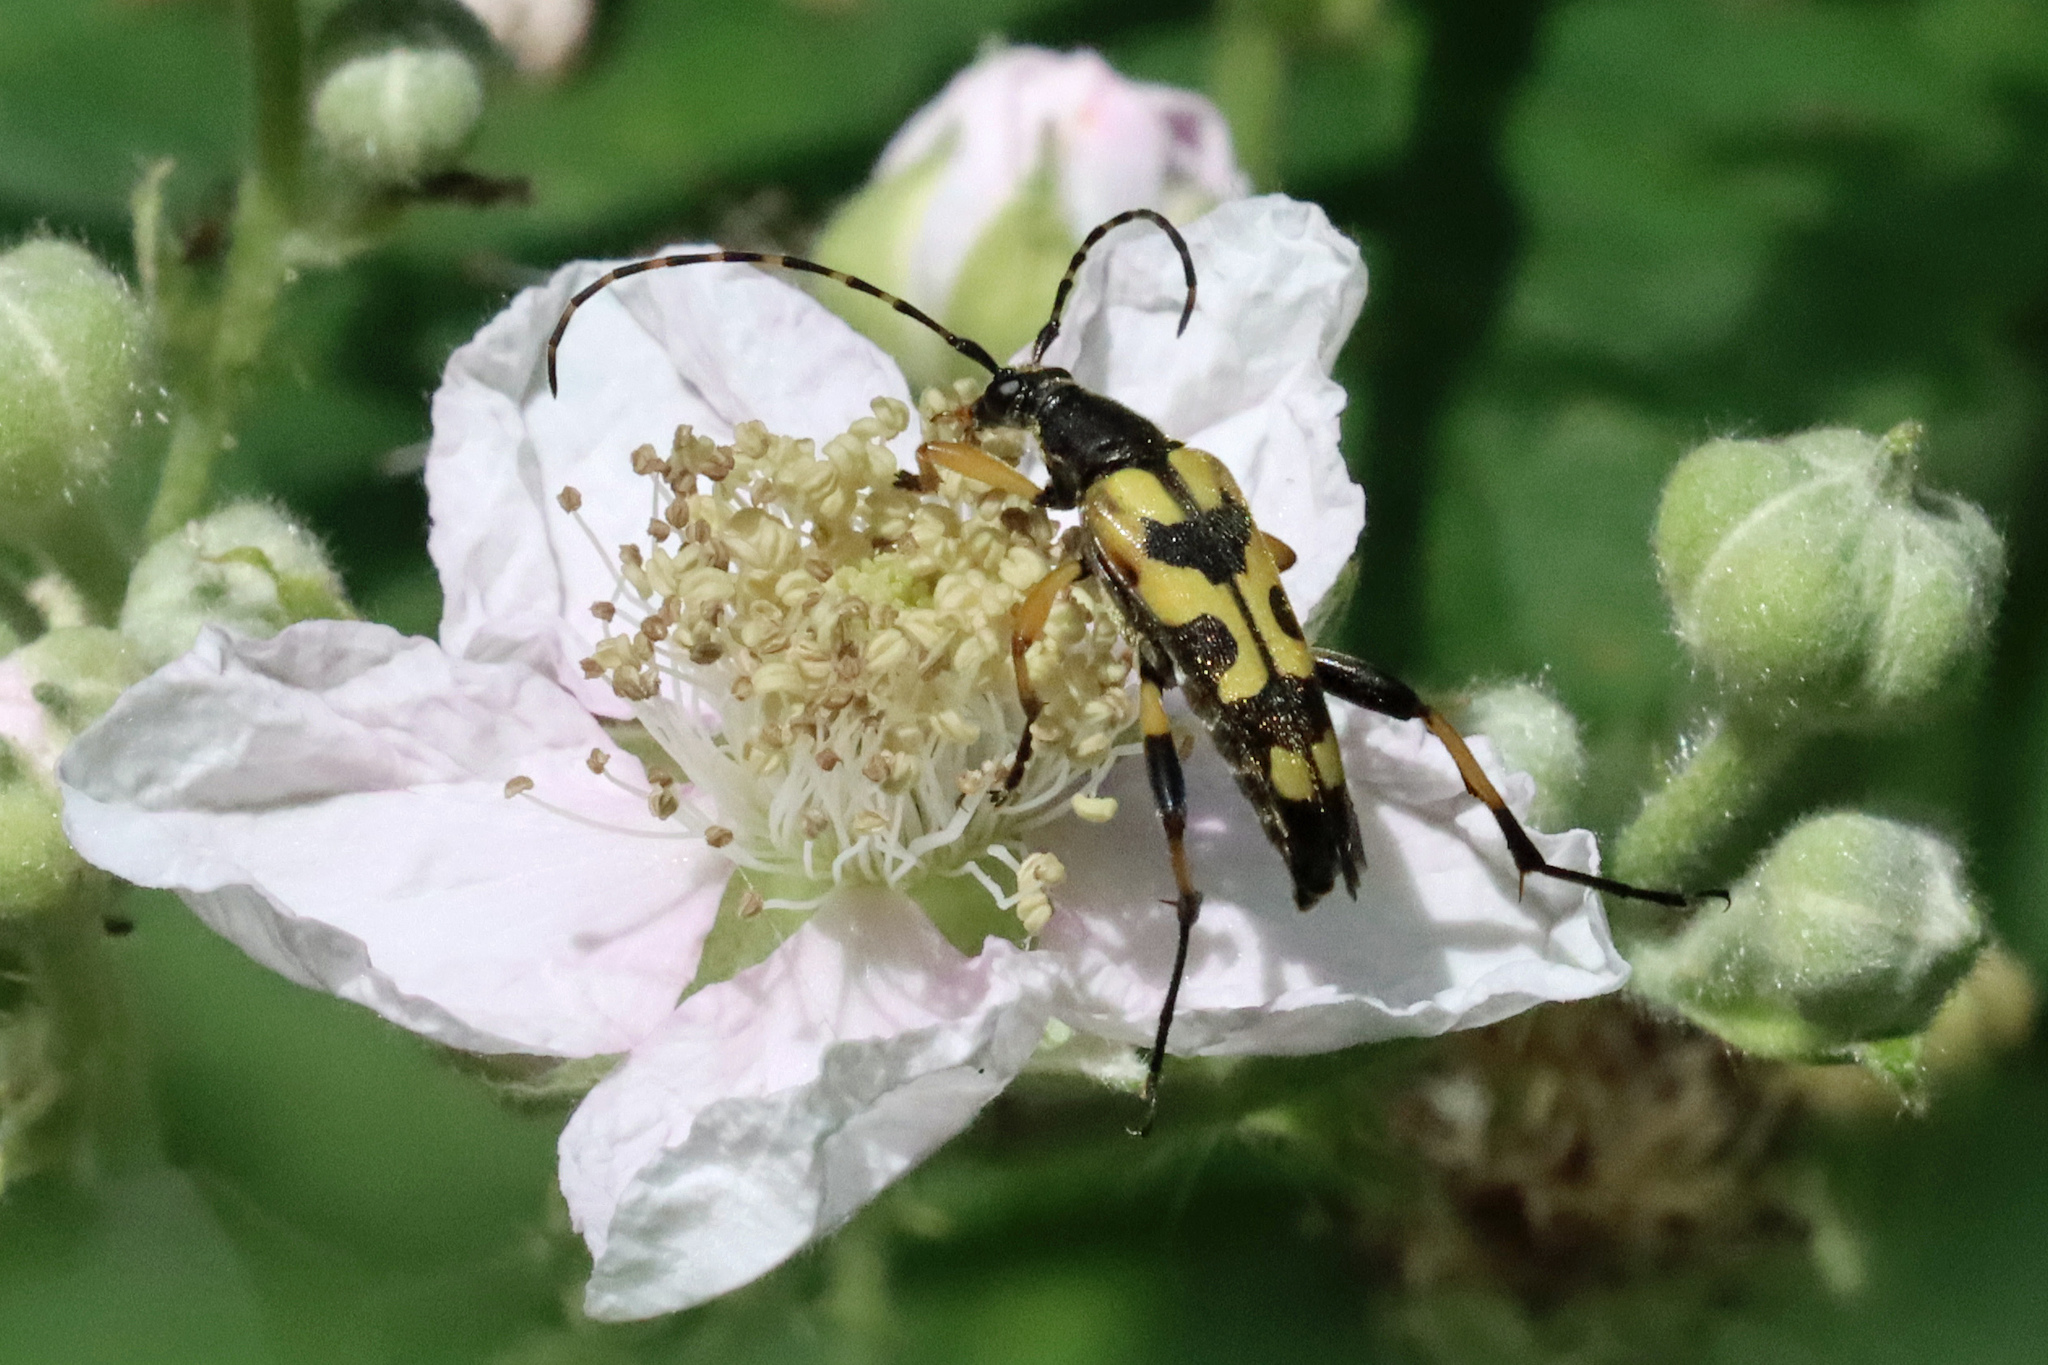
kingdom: Animalia
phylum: Arthropoda
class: Insecta
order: Coleoptera
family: Cerambycidae
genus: Rutpela
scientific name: Rutpela maculata
